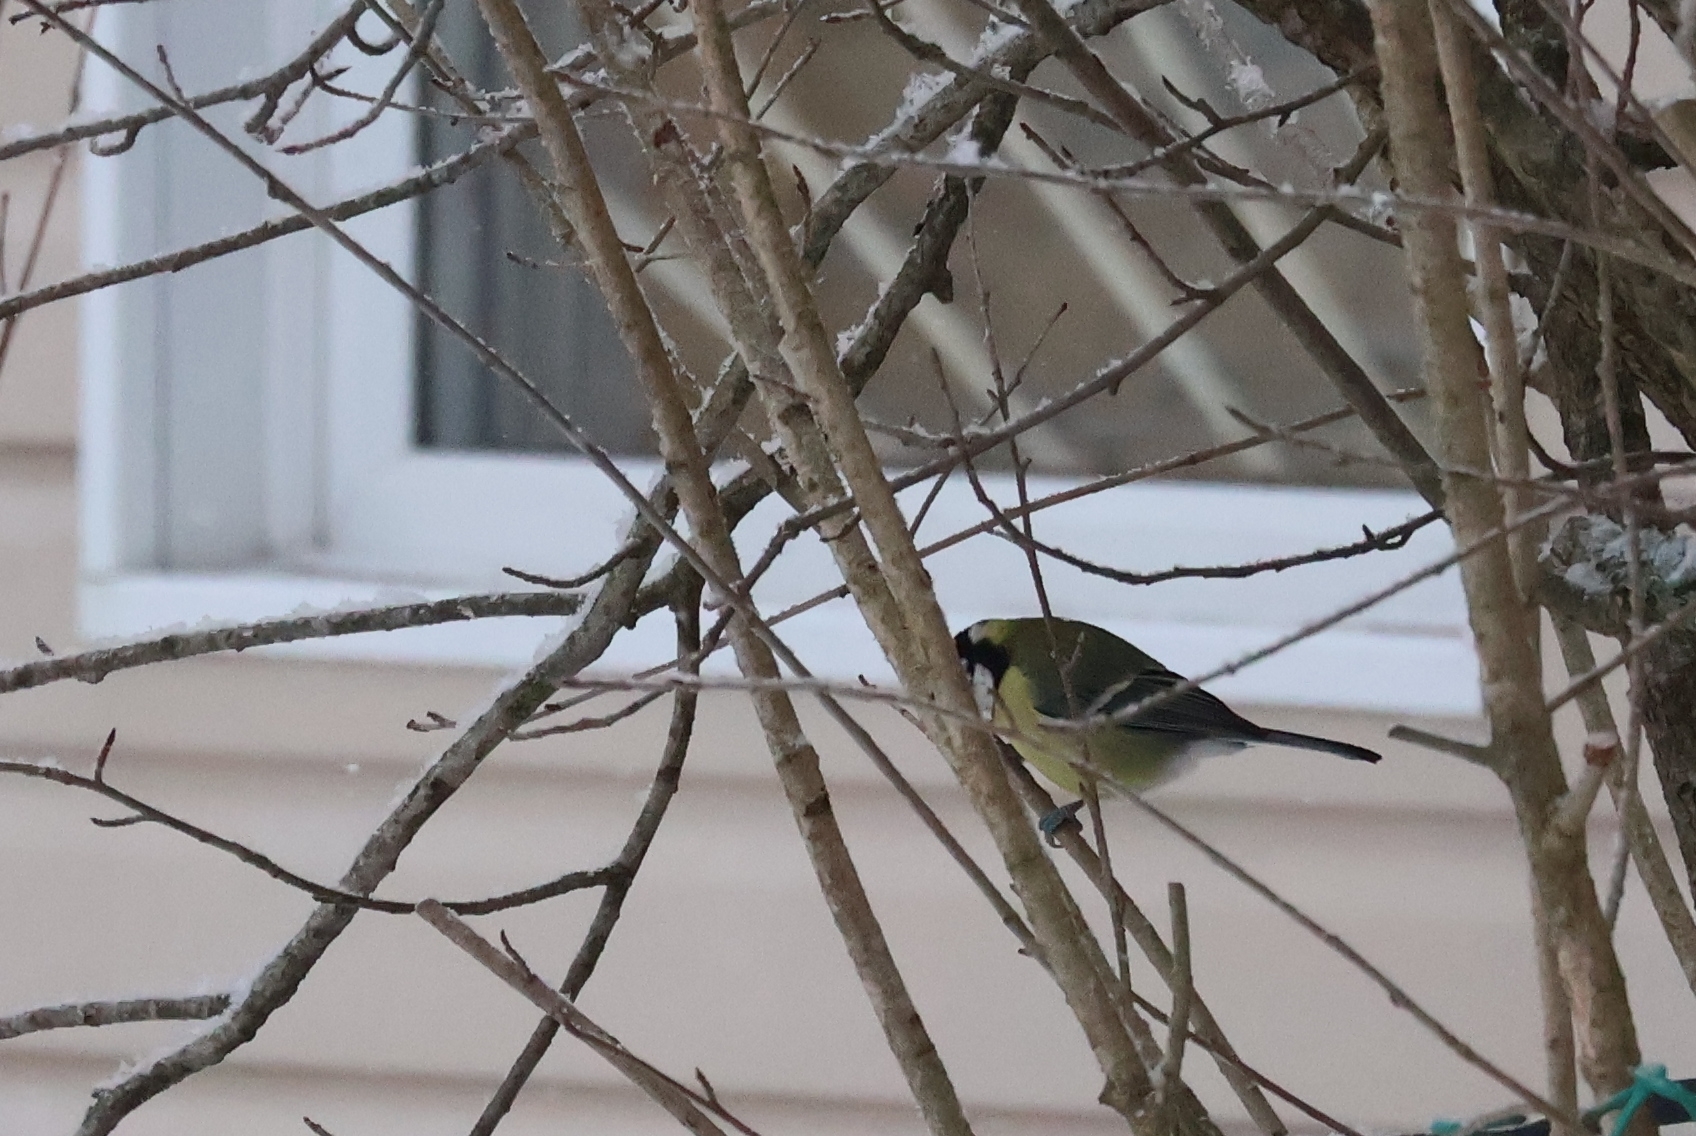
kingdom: Animalia
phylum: Chordata
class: Aves
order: Passeriformes
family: Paridae
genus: Parus
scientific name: Parus major
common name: Great tit
